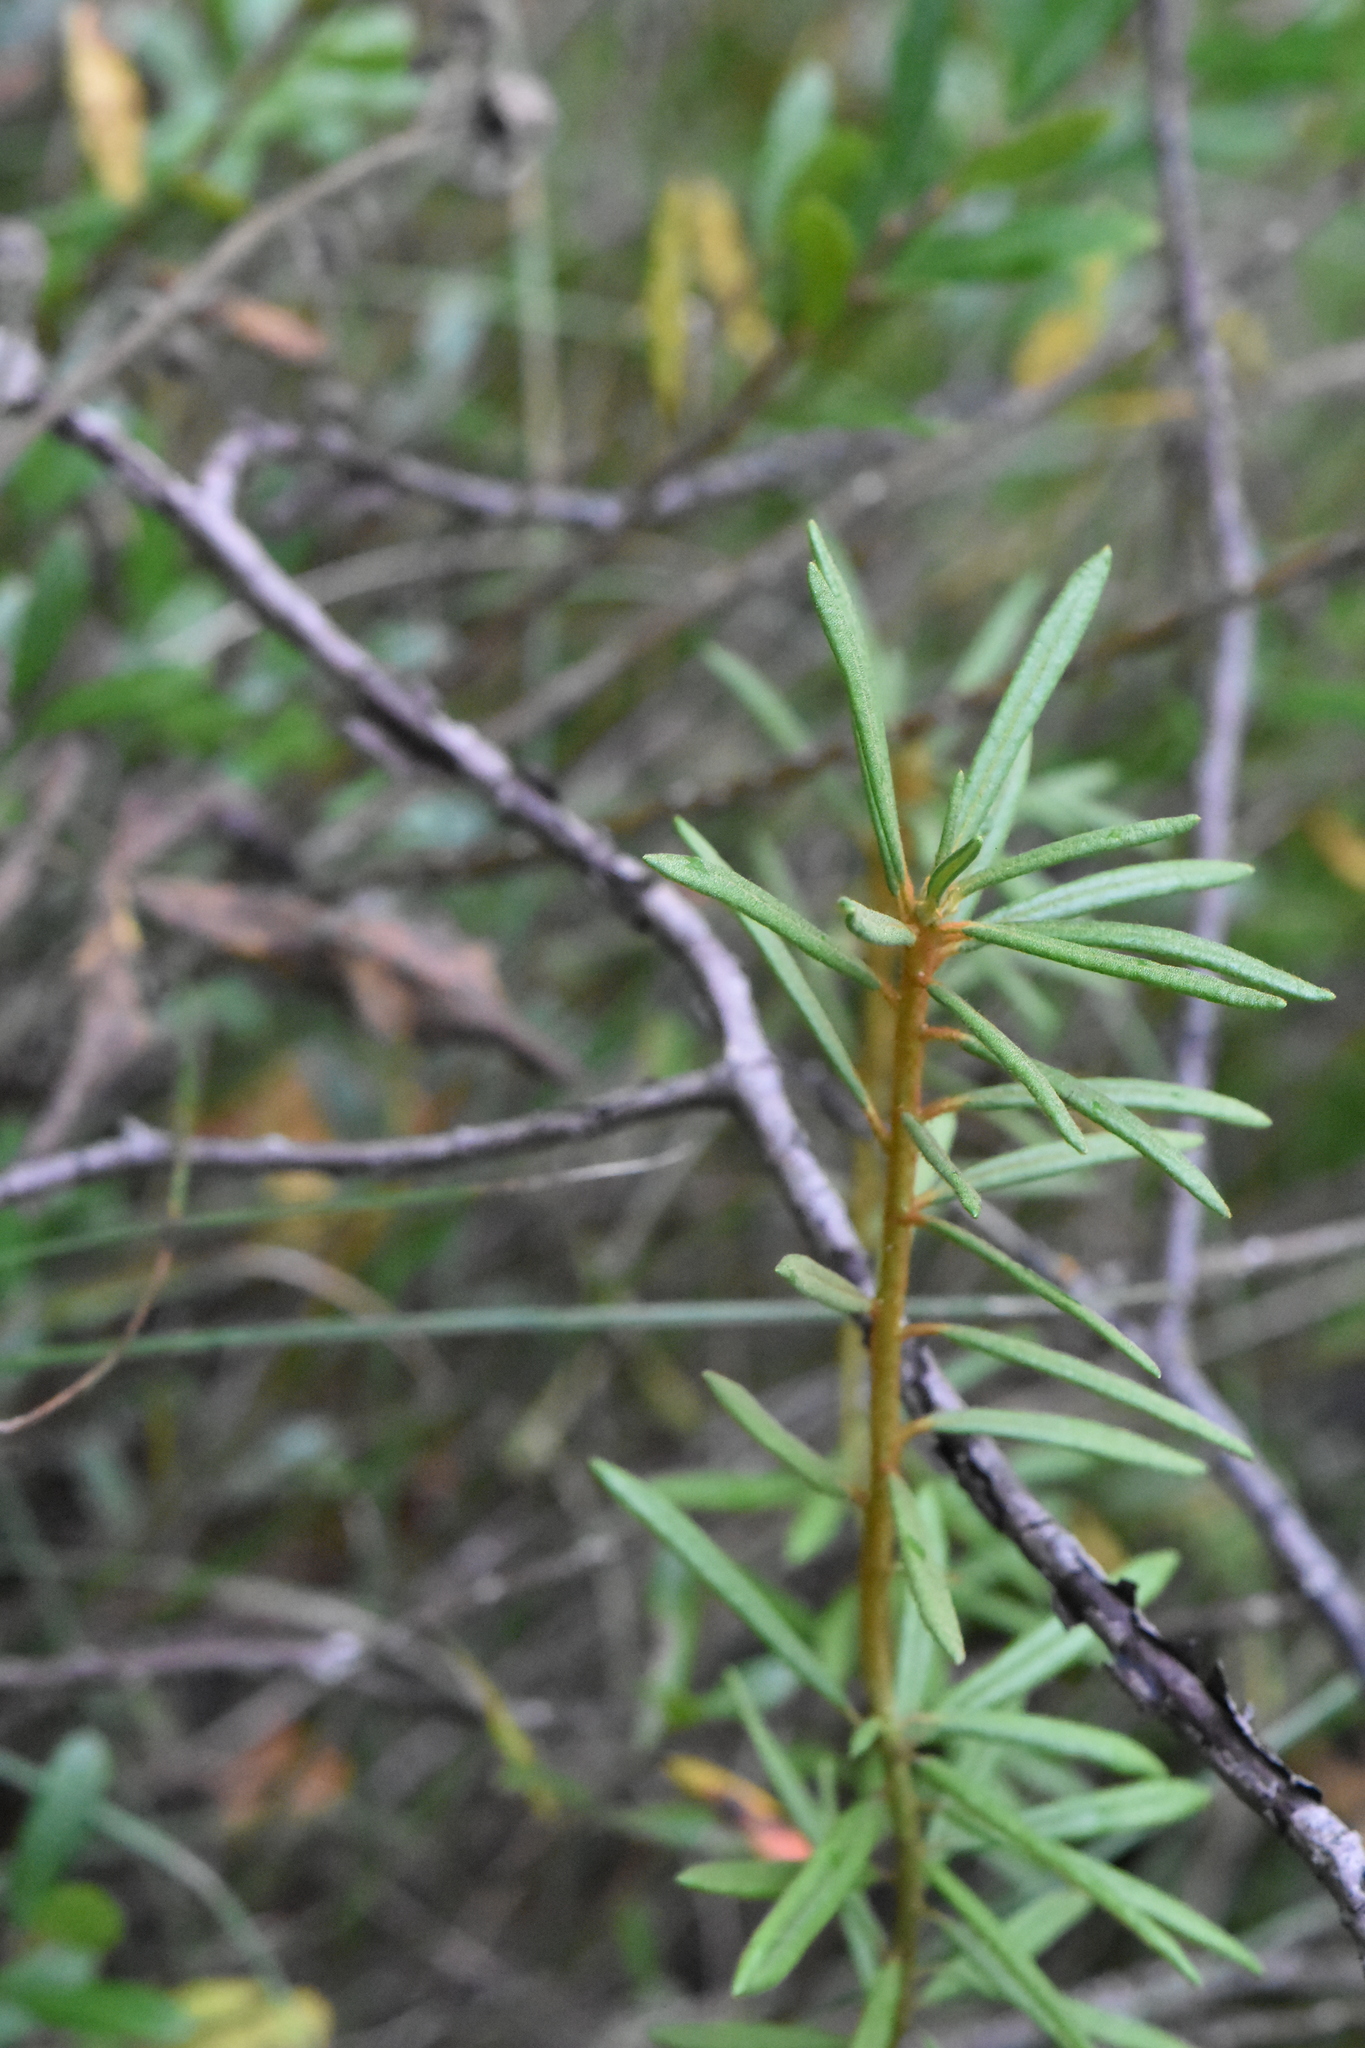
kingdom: Plantae
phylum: Tracheophyta
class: Magnoliopsida
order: Ericales
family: Ericaceae
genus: Rhododendron
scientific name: Rhododendron tomentosum
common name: Marsh labrador tea
